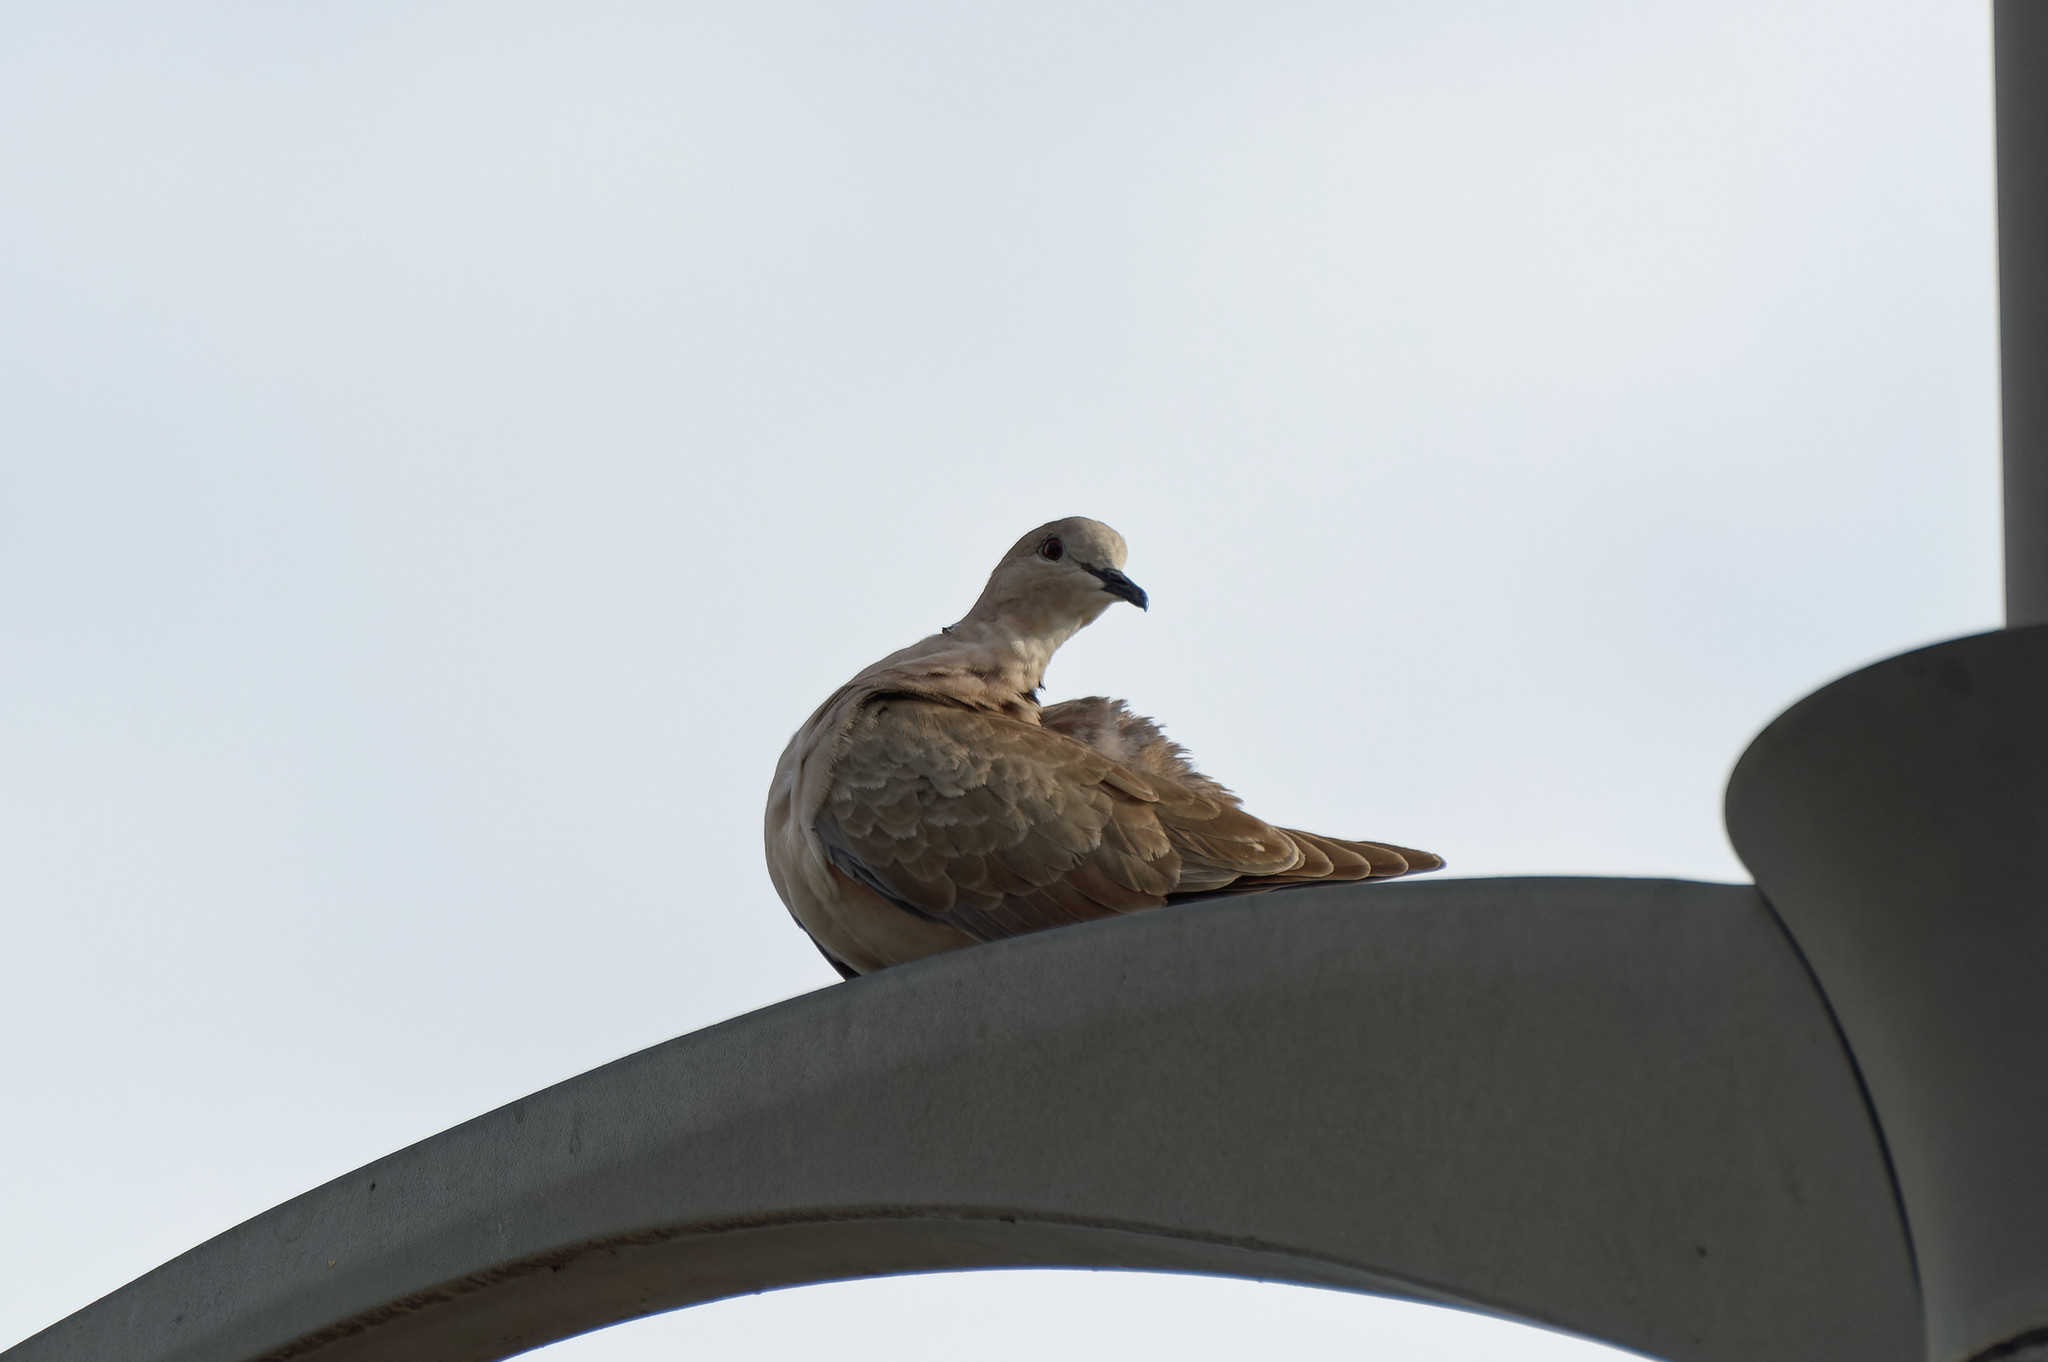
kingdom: Animalia
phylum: Chordata
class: Aves
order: Columbiformes
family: Columbidae
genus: Streptopelia
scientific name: Streptopelia decaocto
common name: Eurasian collared dove
